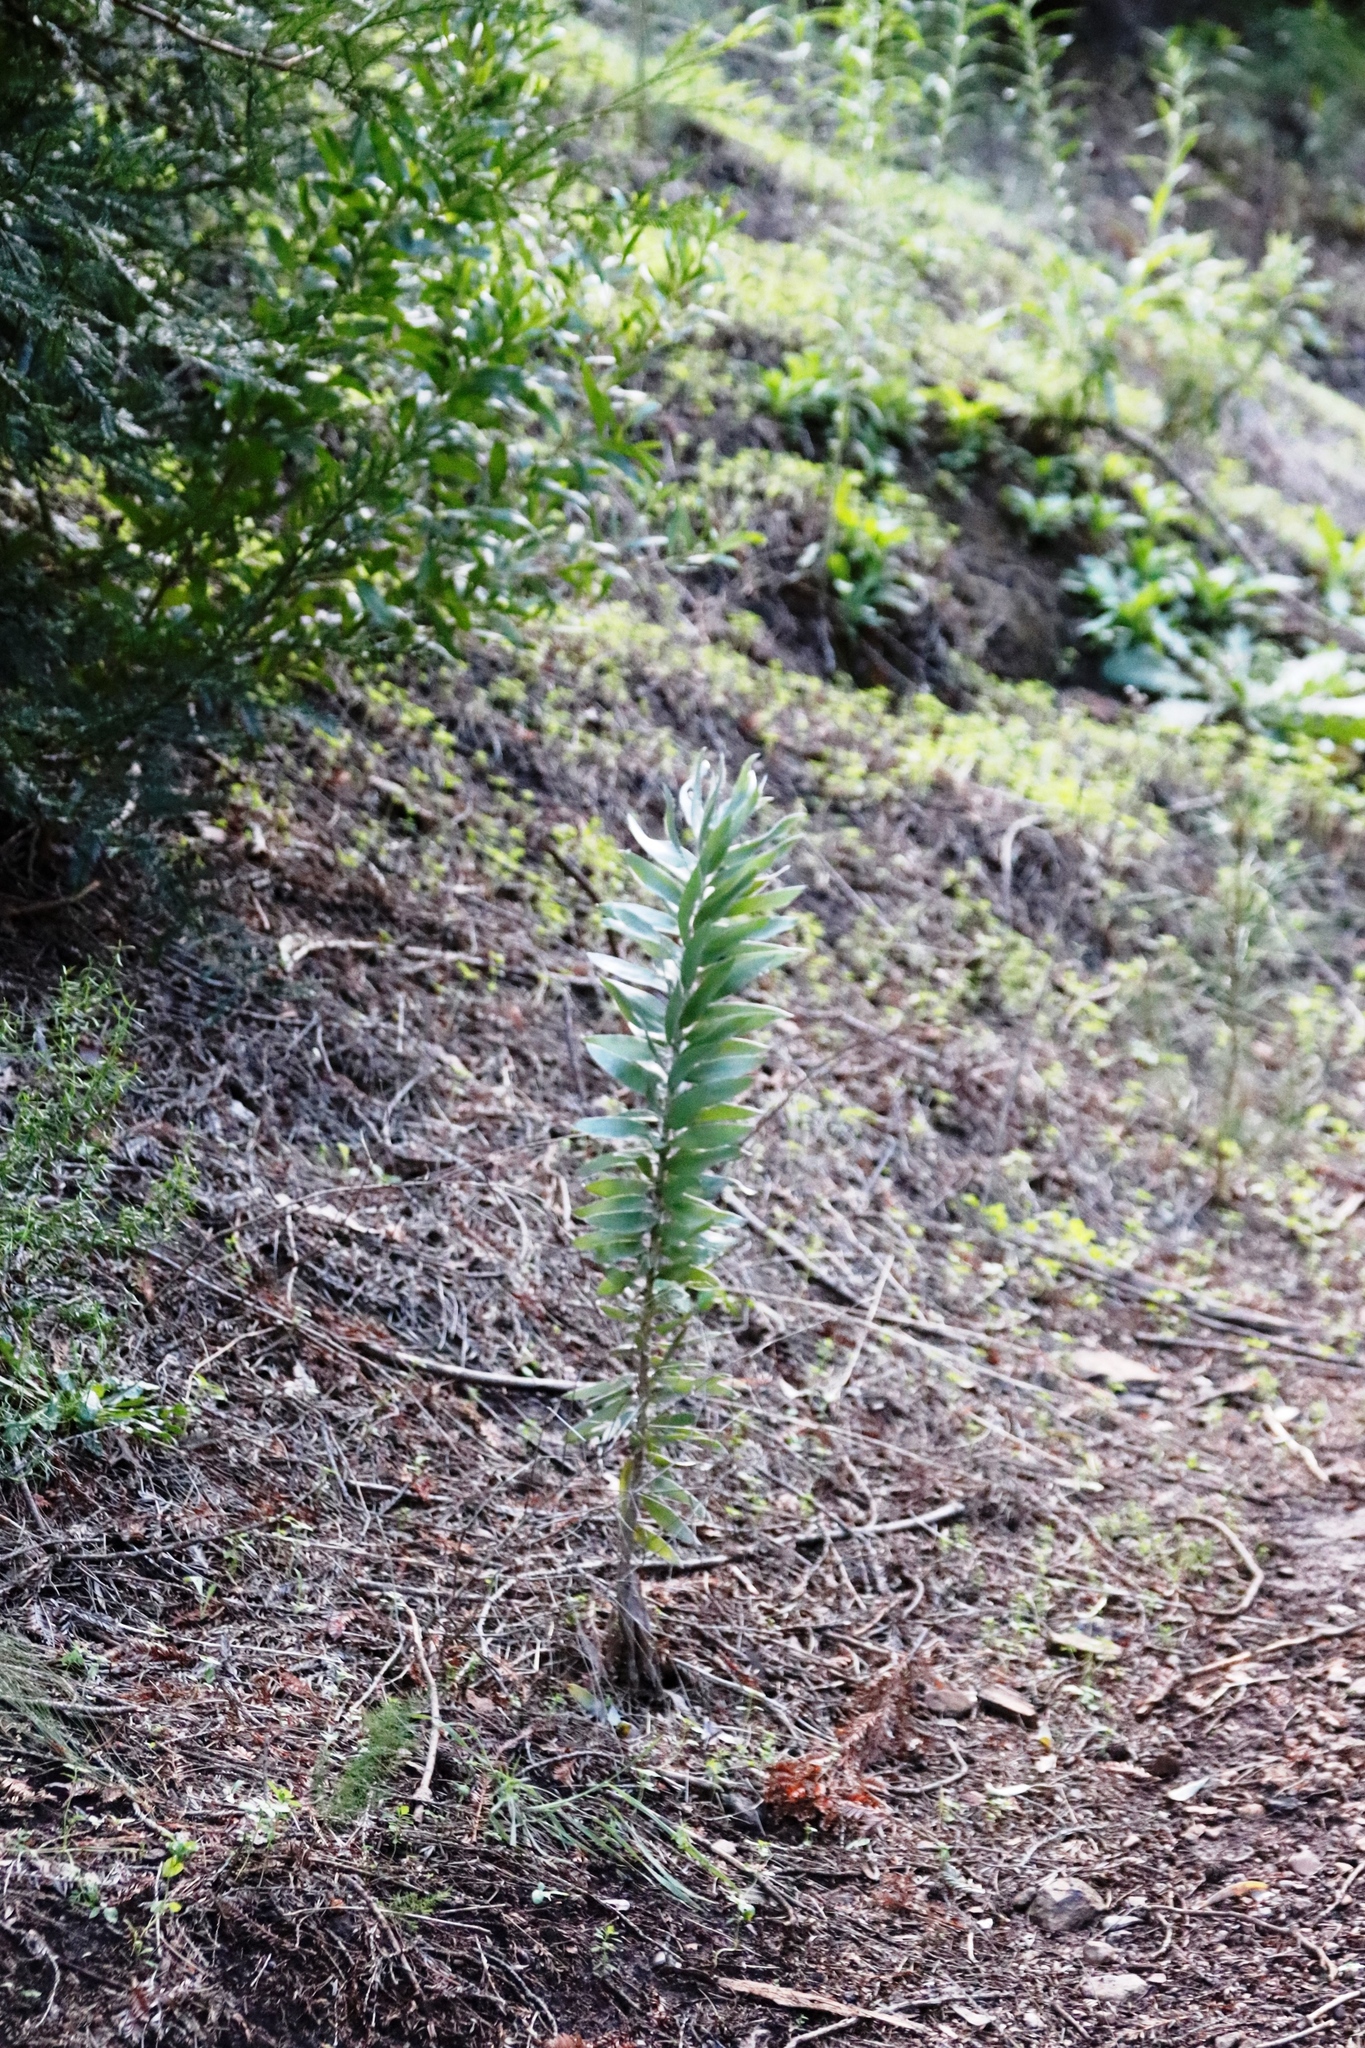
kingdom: Plantae
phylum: Tracheophyta
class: Magnoliopsida
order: Proteales
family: Proteaceae
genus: Leucadendron
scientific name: Leucadendron argenteum
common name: Cape silver tree
